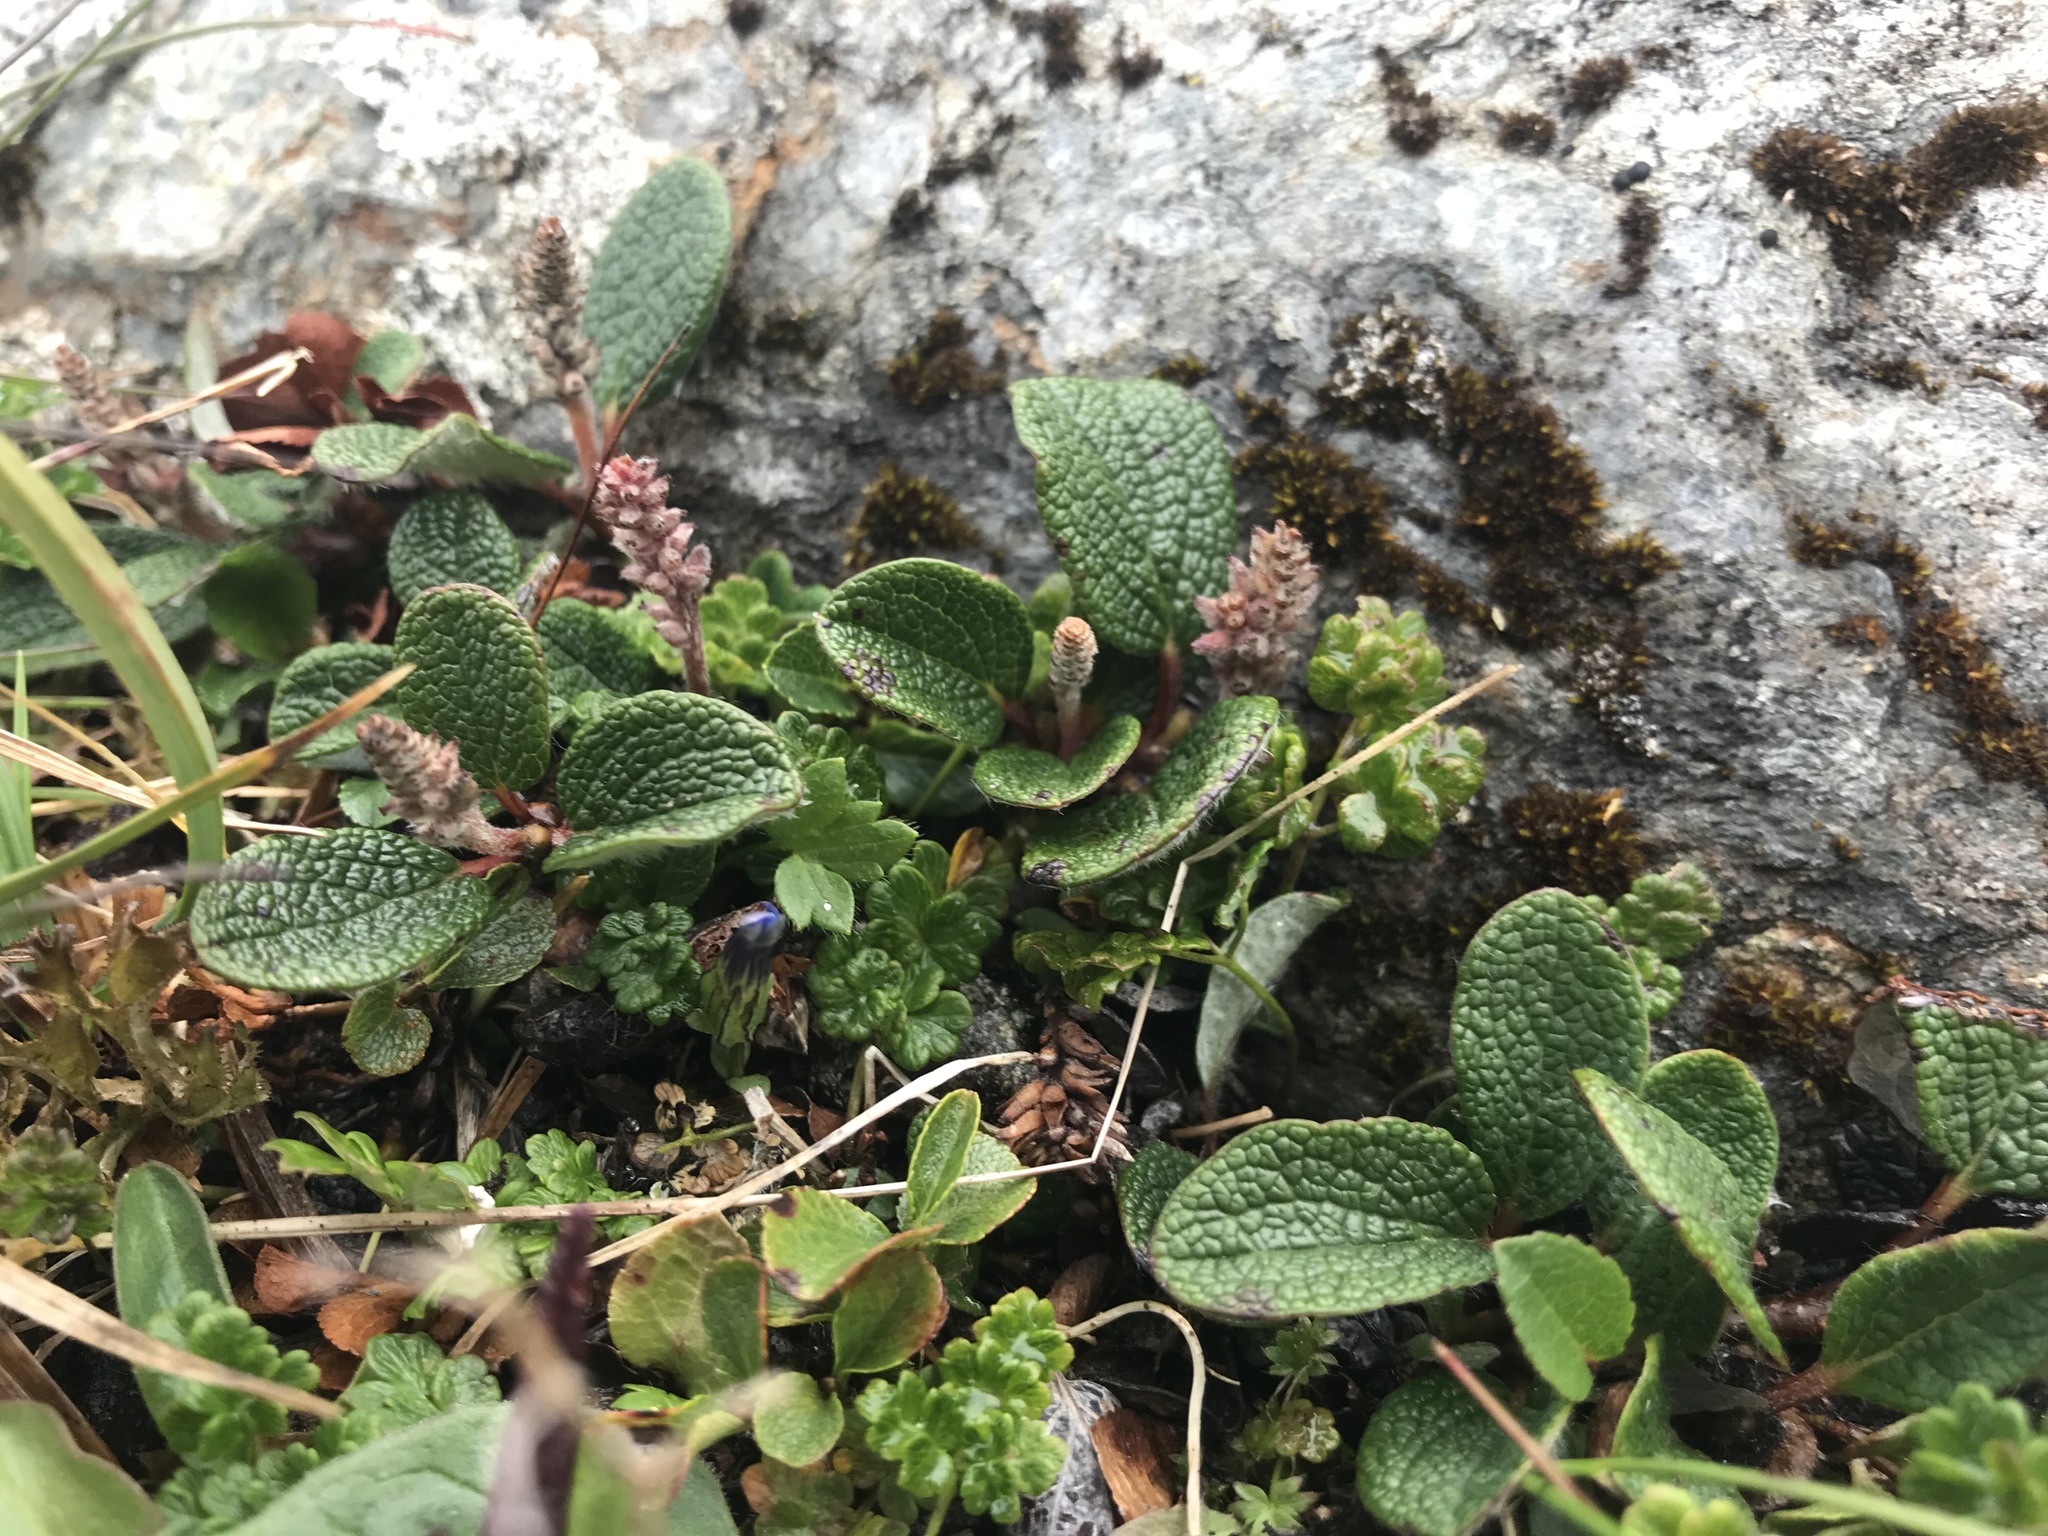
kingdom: Plantae
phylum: Tracheophyta
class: Magnoliopsida
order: Malpighiales
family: Salicaceae
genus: Salix
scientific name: Salix reticulata
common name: Net-leaved willow
